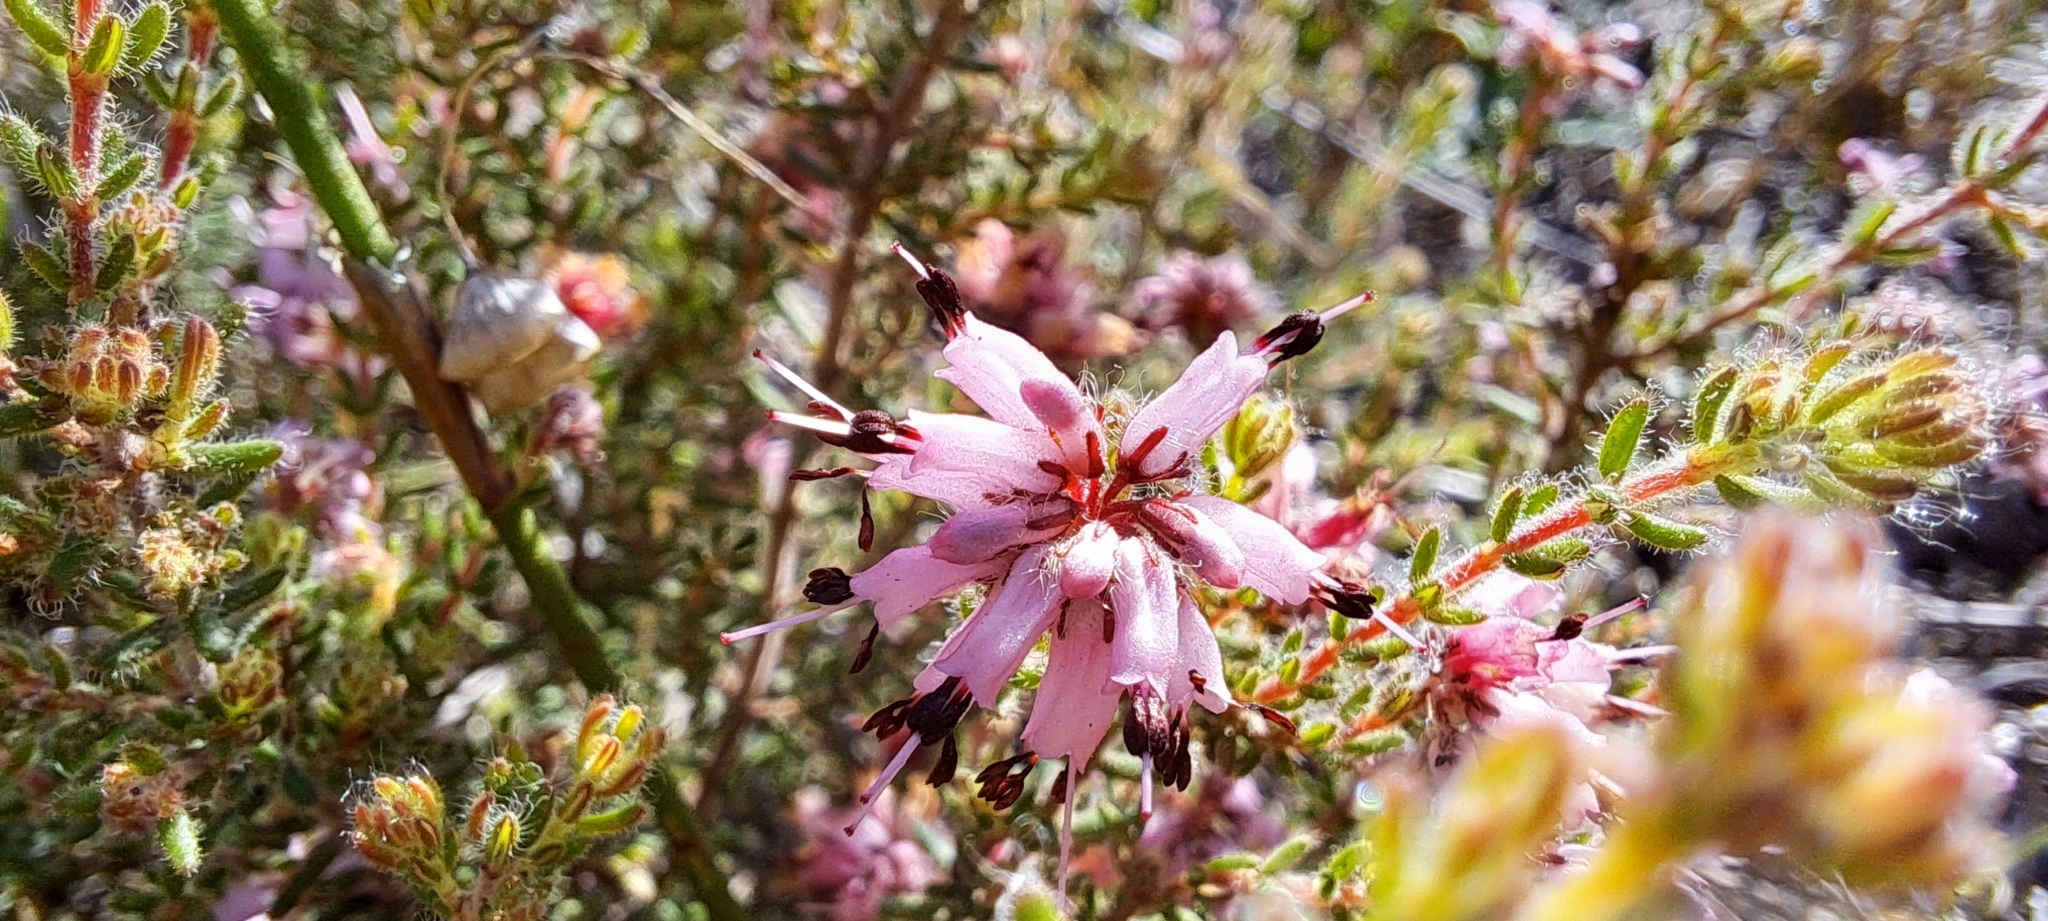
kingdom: Plantae
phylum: Tracheophyta
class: Magnoliopsida
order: Ericales
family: Ericaceae
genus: Erica
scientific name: Erica ericoides
